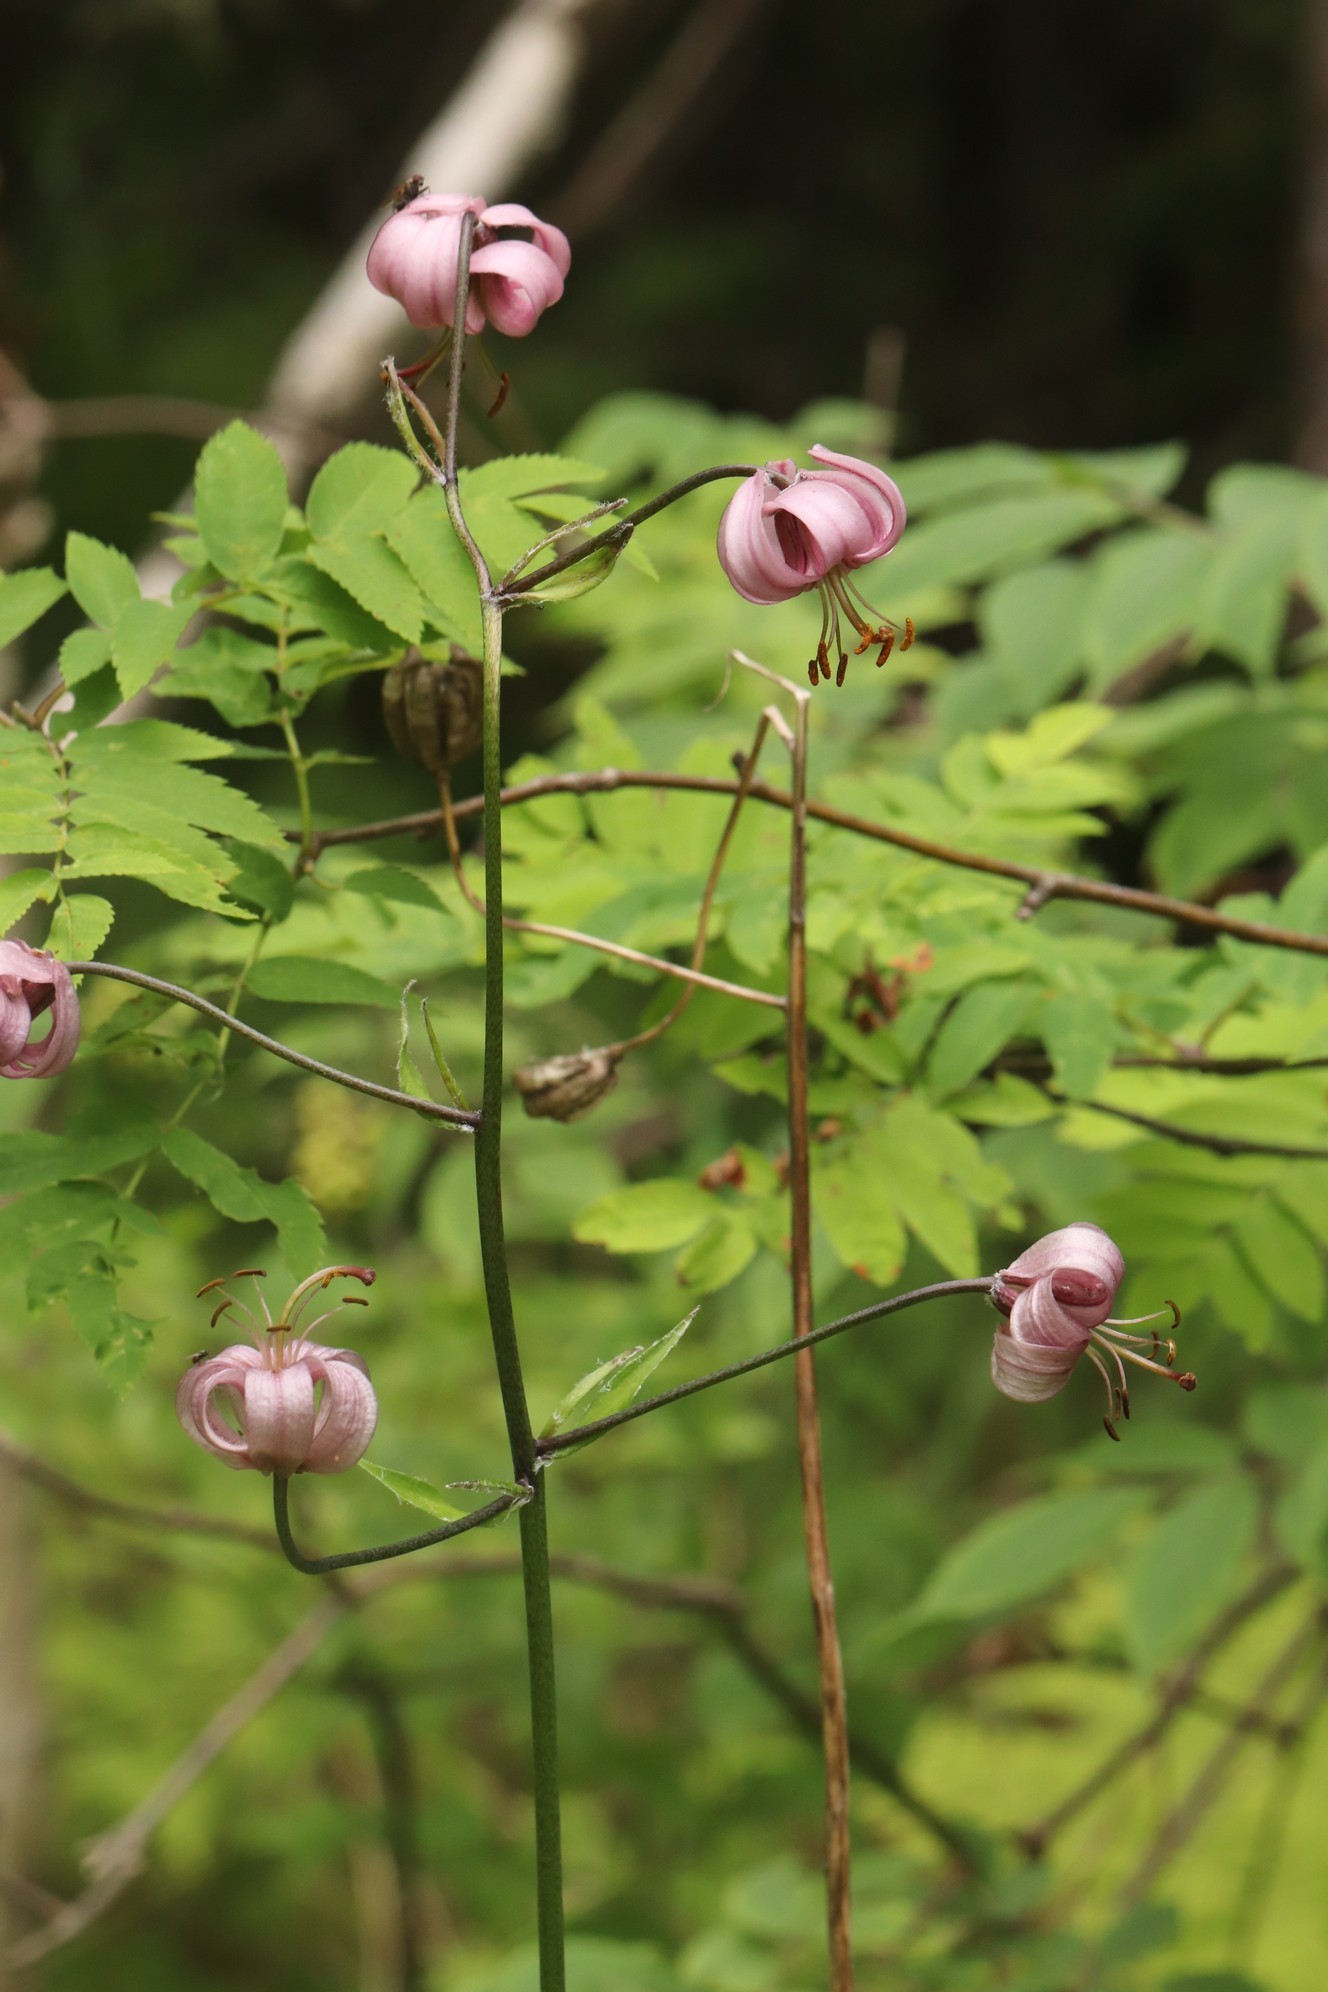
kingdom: Plantae
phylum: Tracheophyta
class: Liliopsida
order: Liliales
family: Liliaceae
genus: Lilium
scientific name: Lilium martagon
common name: Martagon lily
